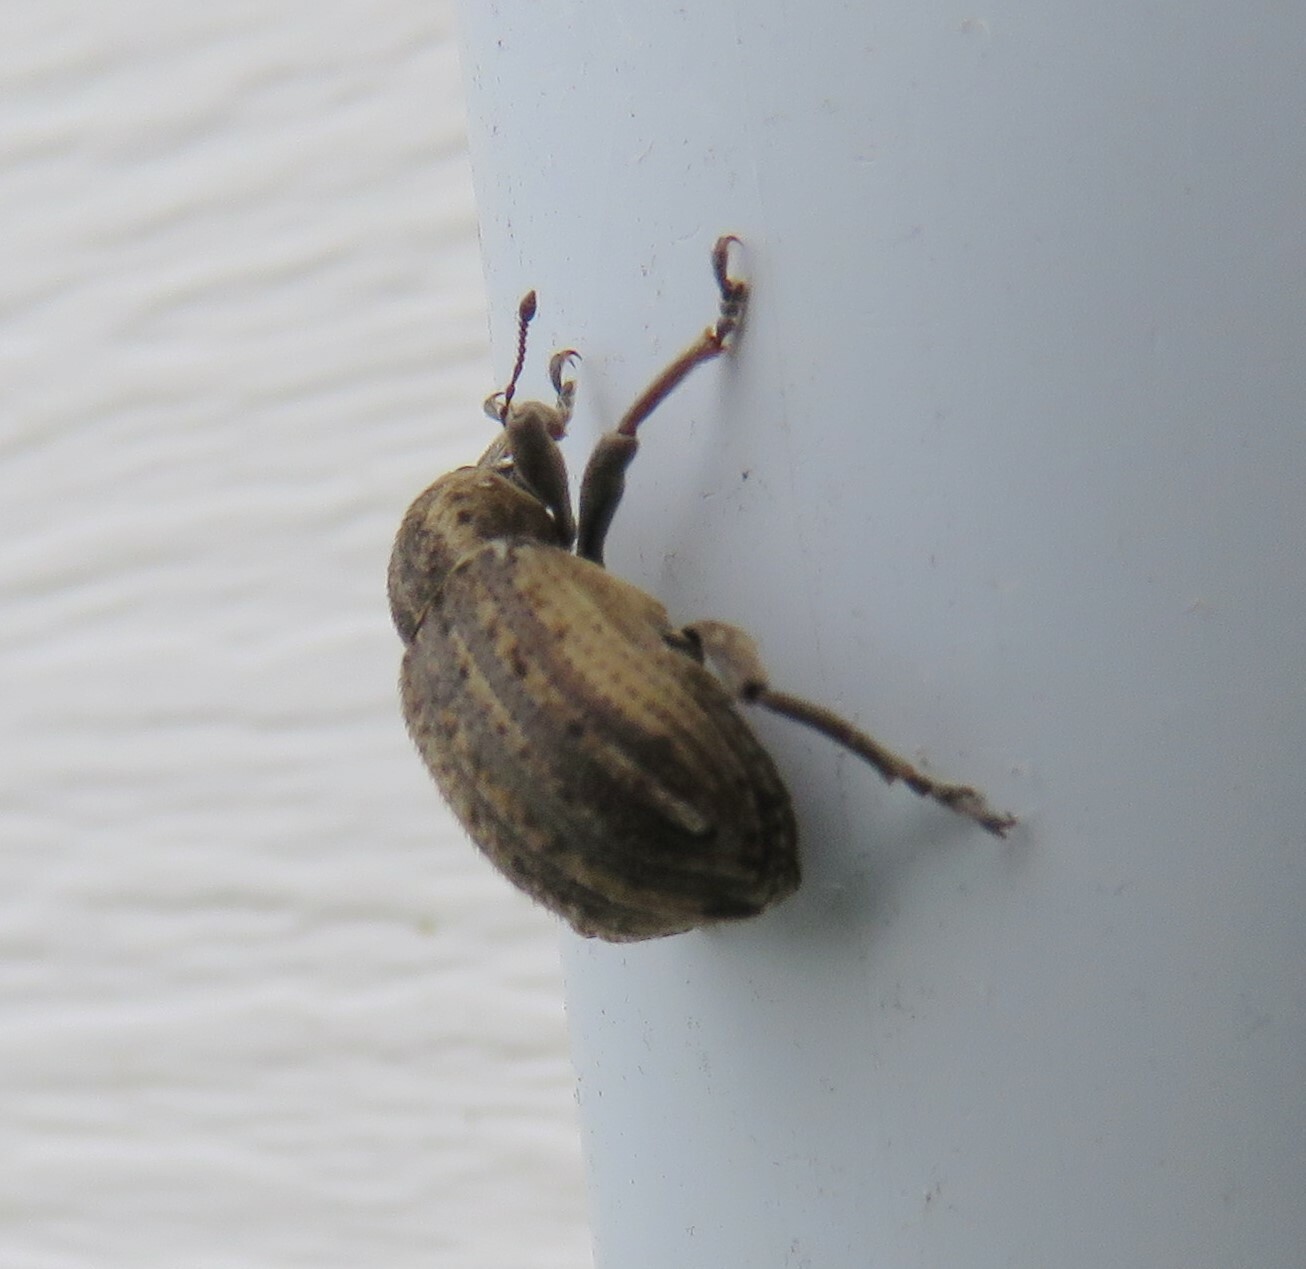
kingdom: Animalia
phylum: Arthropoda
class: Insecta
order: Coleoptera
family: Curculionidae
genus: Brachypera
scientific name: Brachypera zoilus
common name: Clover leaf weevil
